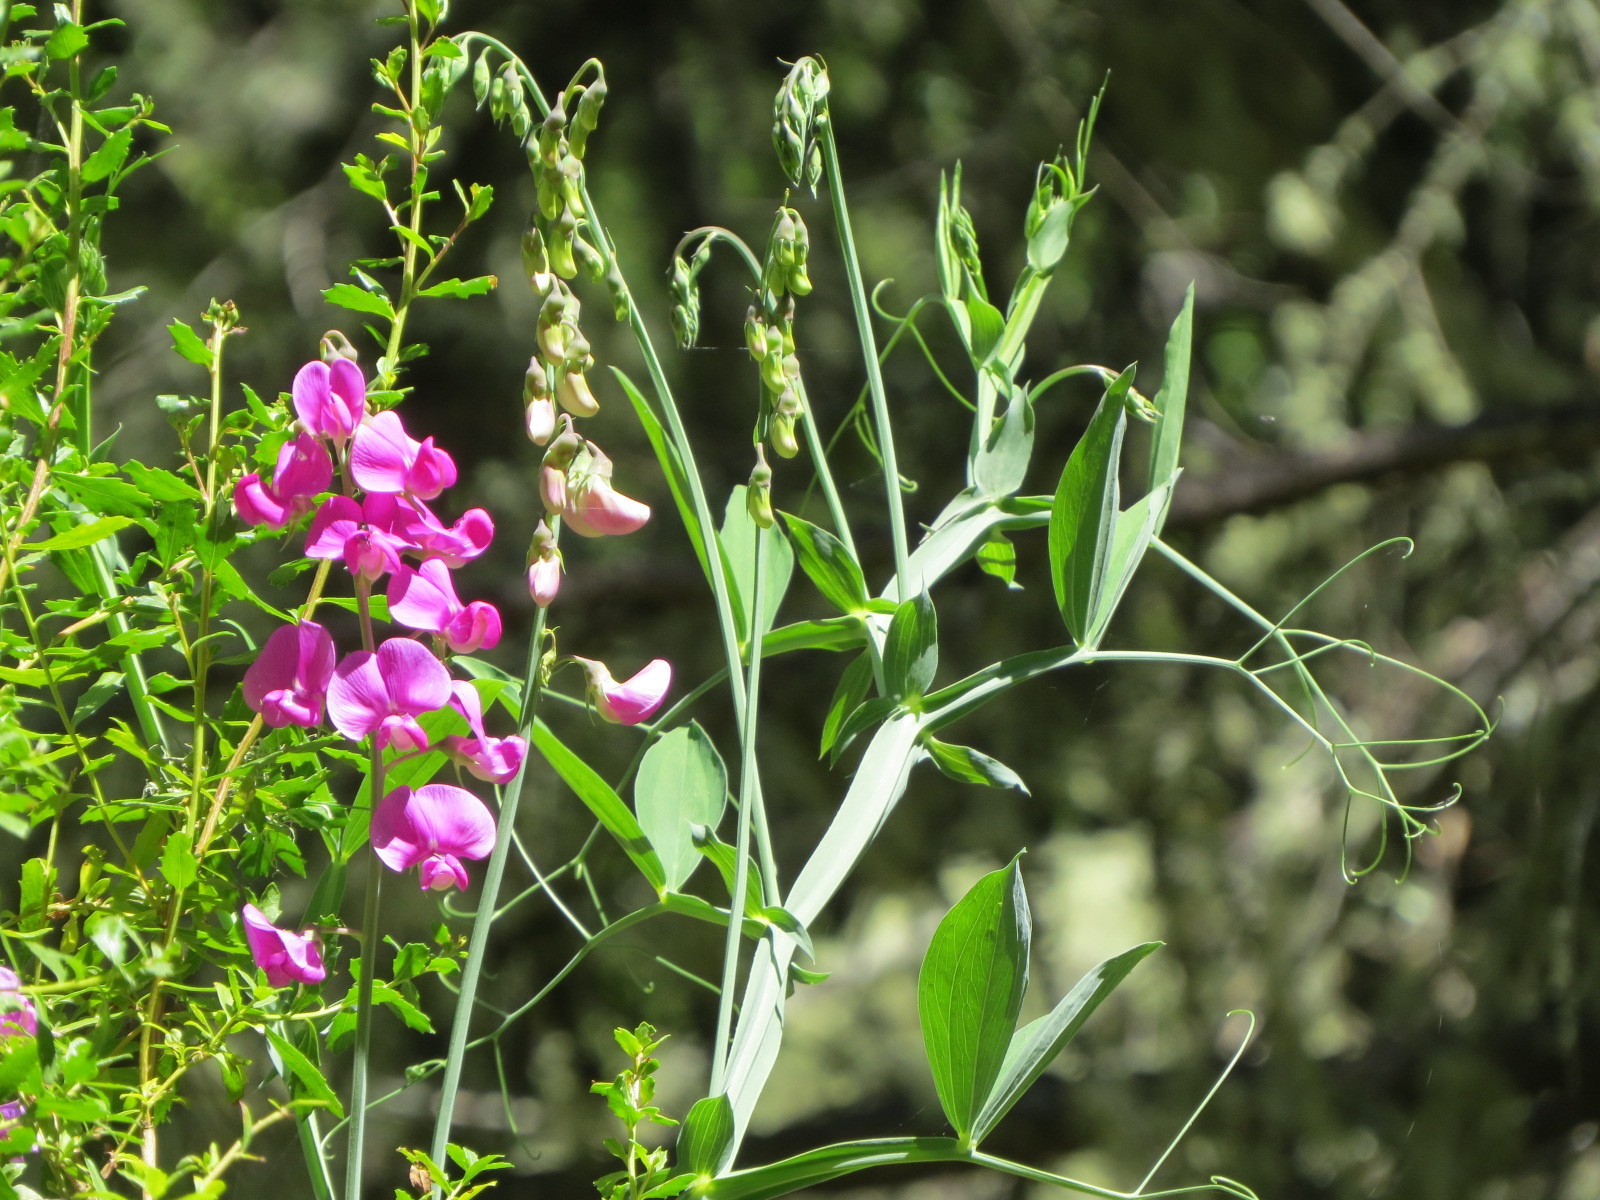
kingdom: Plantae
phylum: Tracheophyta
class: Magnoliopsida
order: Fabales
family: Fabaceae
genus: Lathyrus
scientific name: Lathyrus latifolius
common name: Perennial pea
